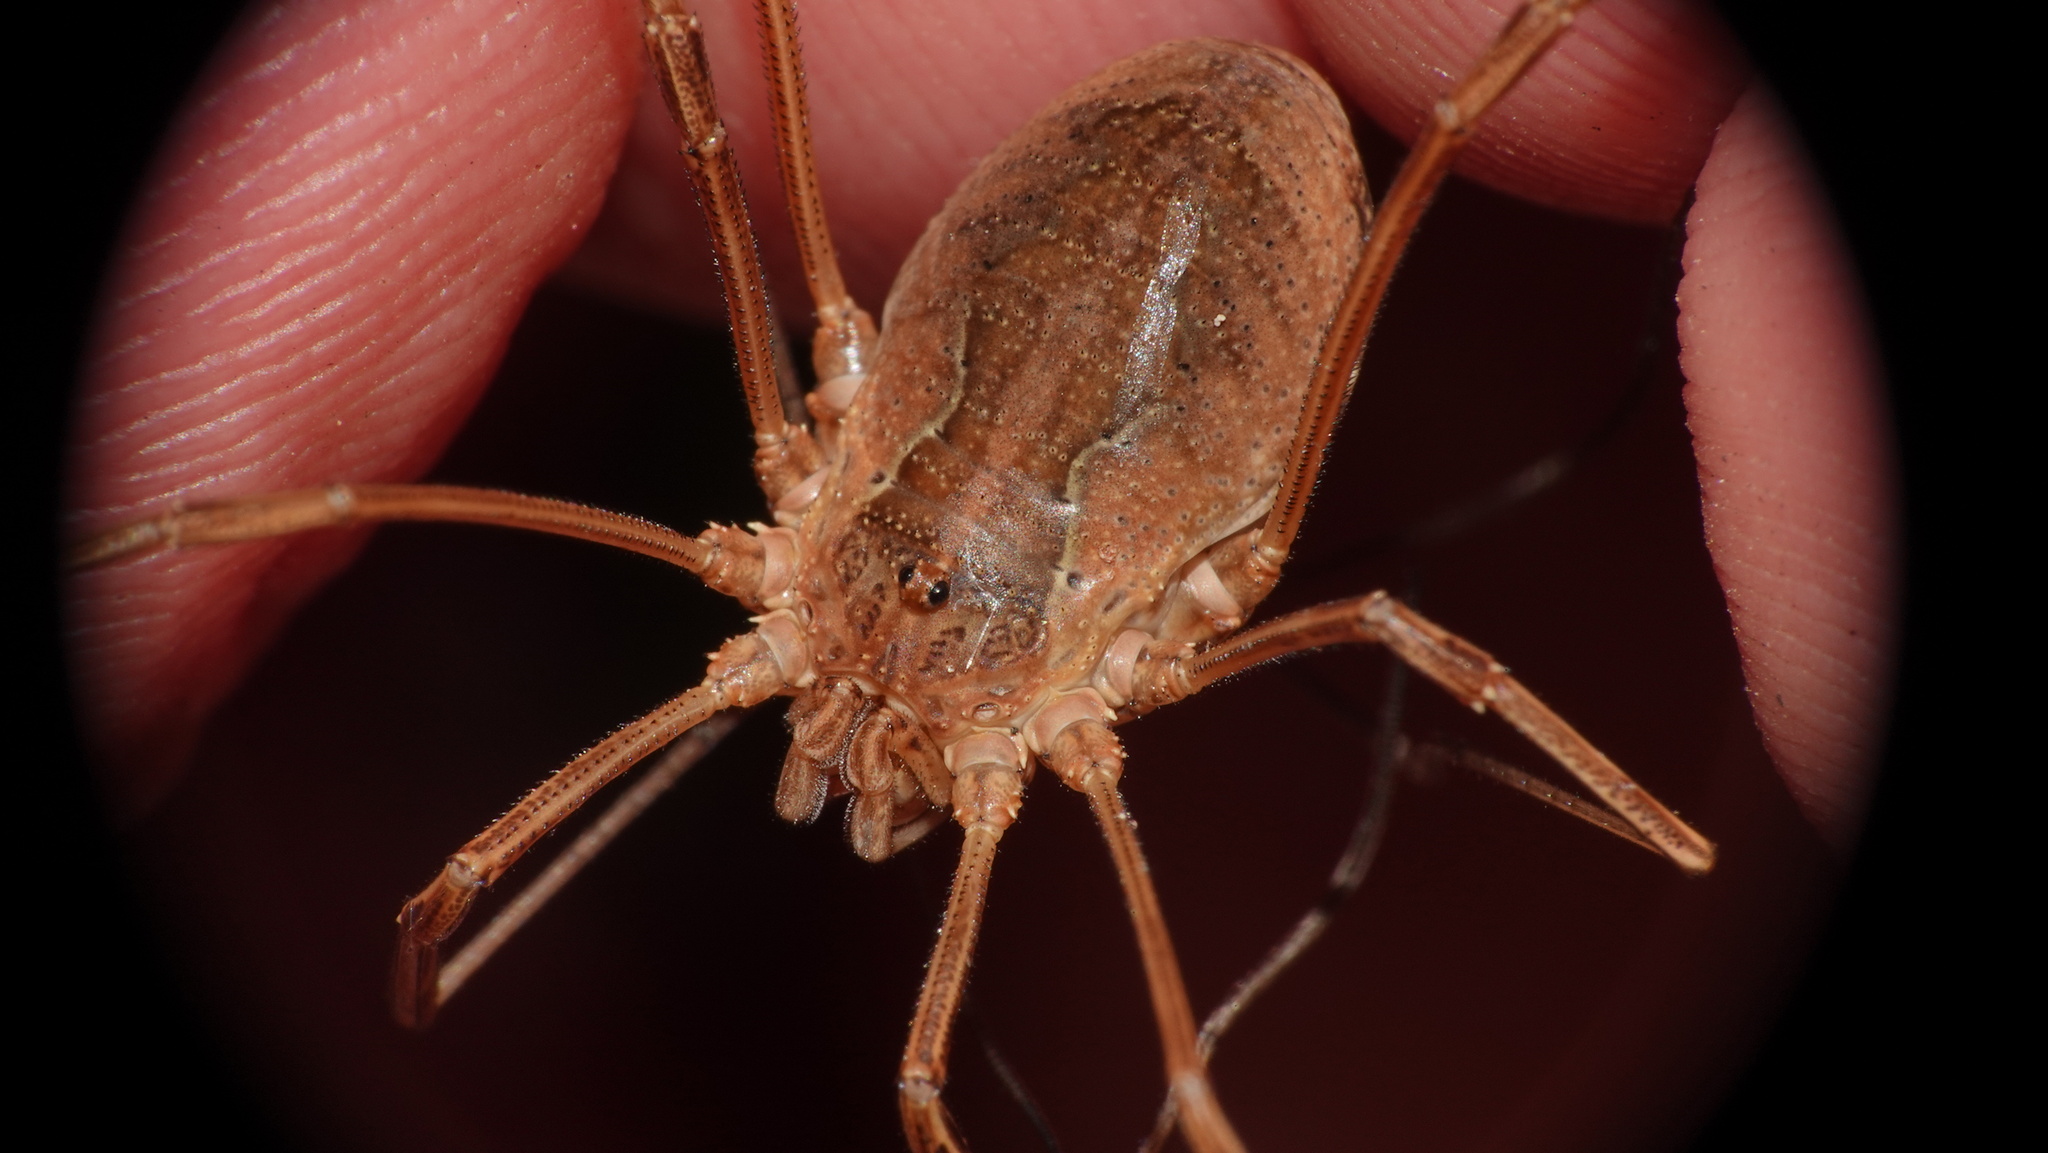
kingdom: Animalia
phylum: Arthropoda
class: Arachnida
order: Opiliones
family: Phalangiidae
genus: Mitopus
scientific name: Mitopus morio
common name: Saddleback harvestman
